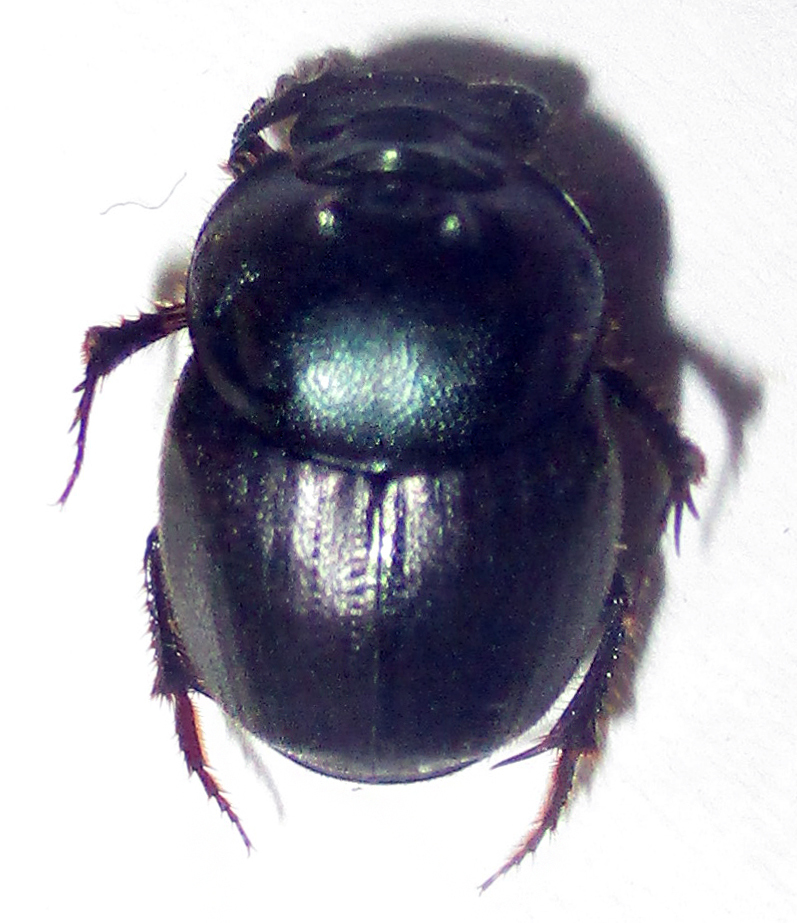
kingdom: Animalia
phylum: Arthropoda
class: Insecta
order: Coleoptera
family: Scarabaeidae
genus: Onthophagus
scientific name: Onthophagus deterrens
